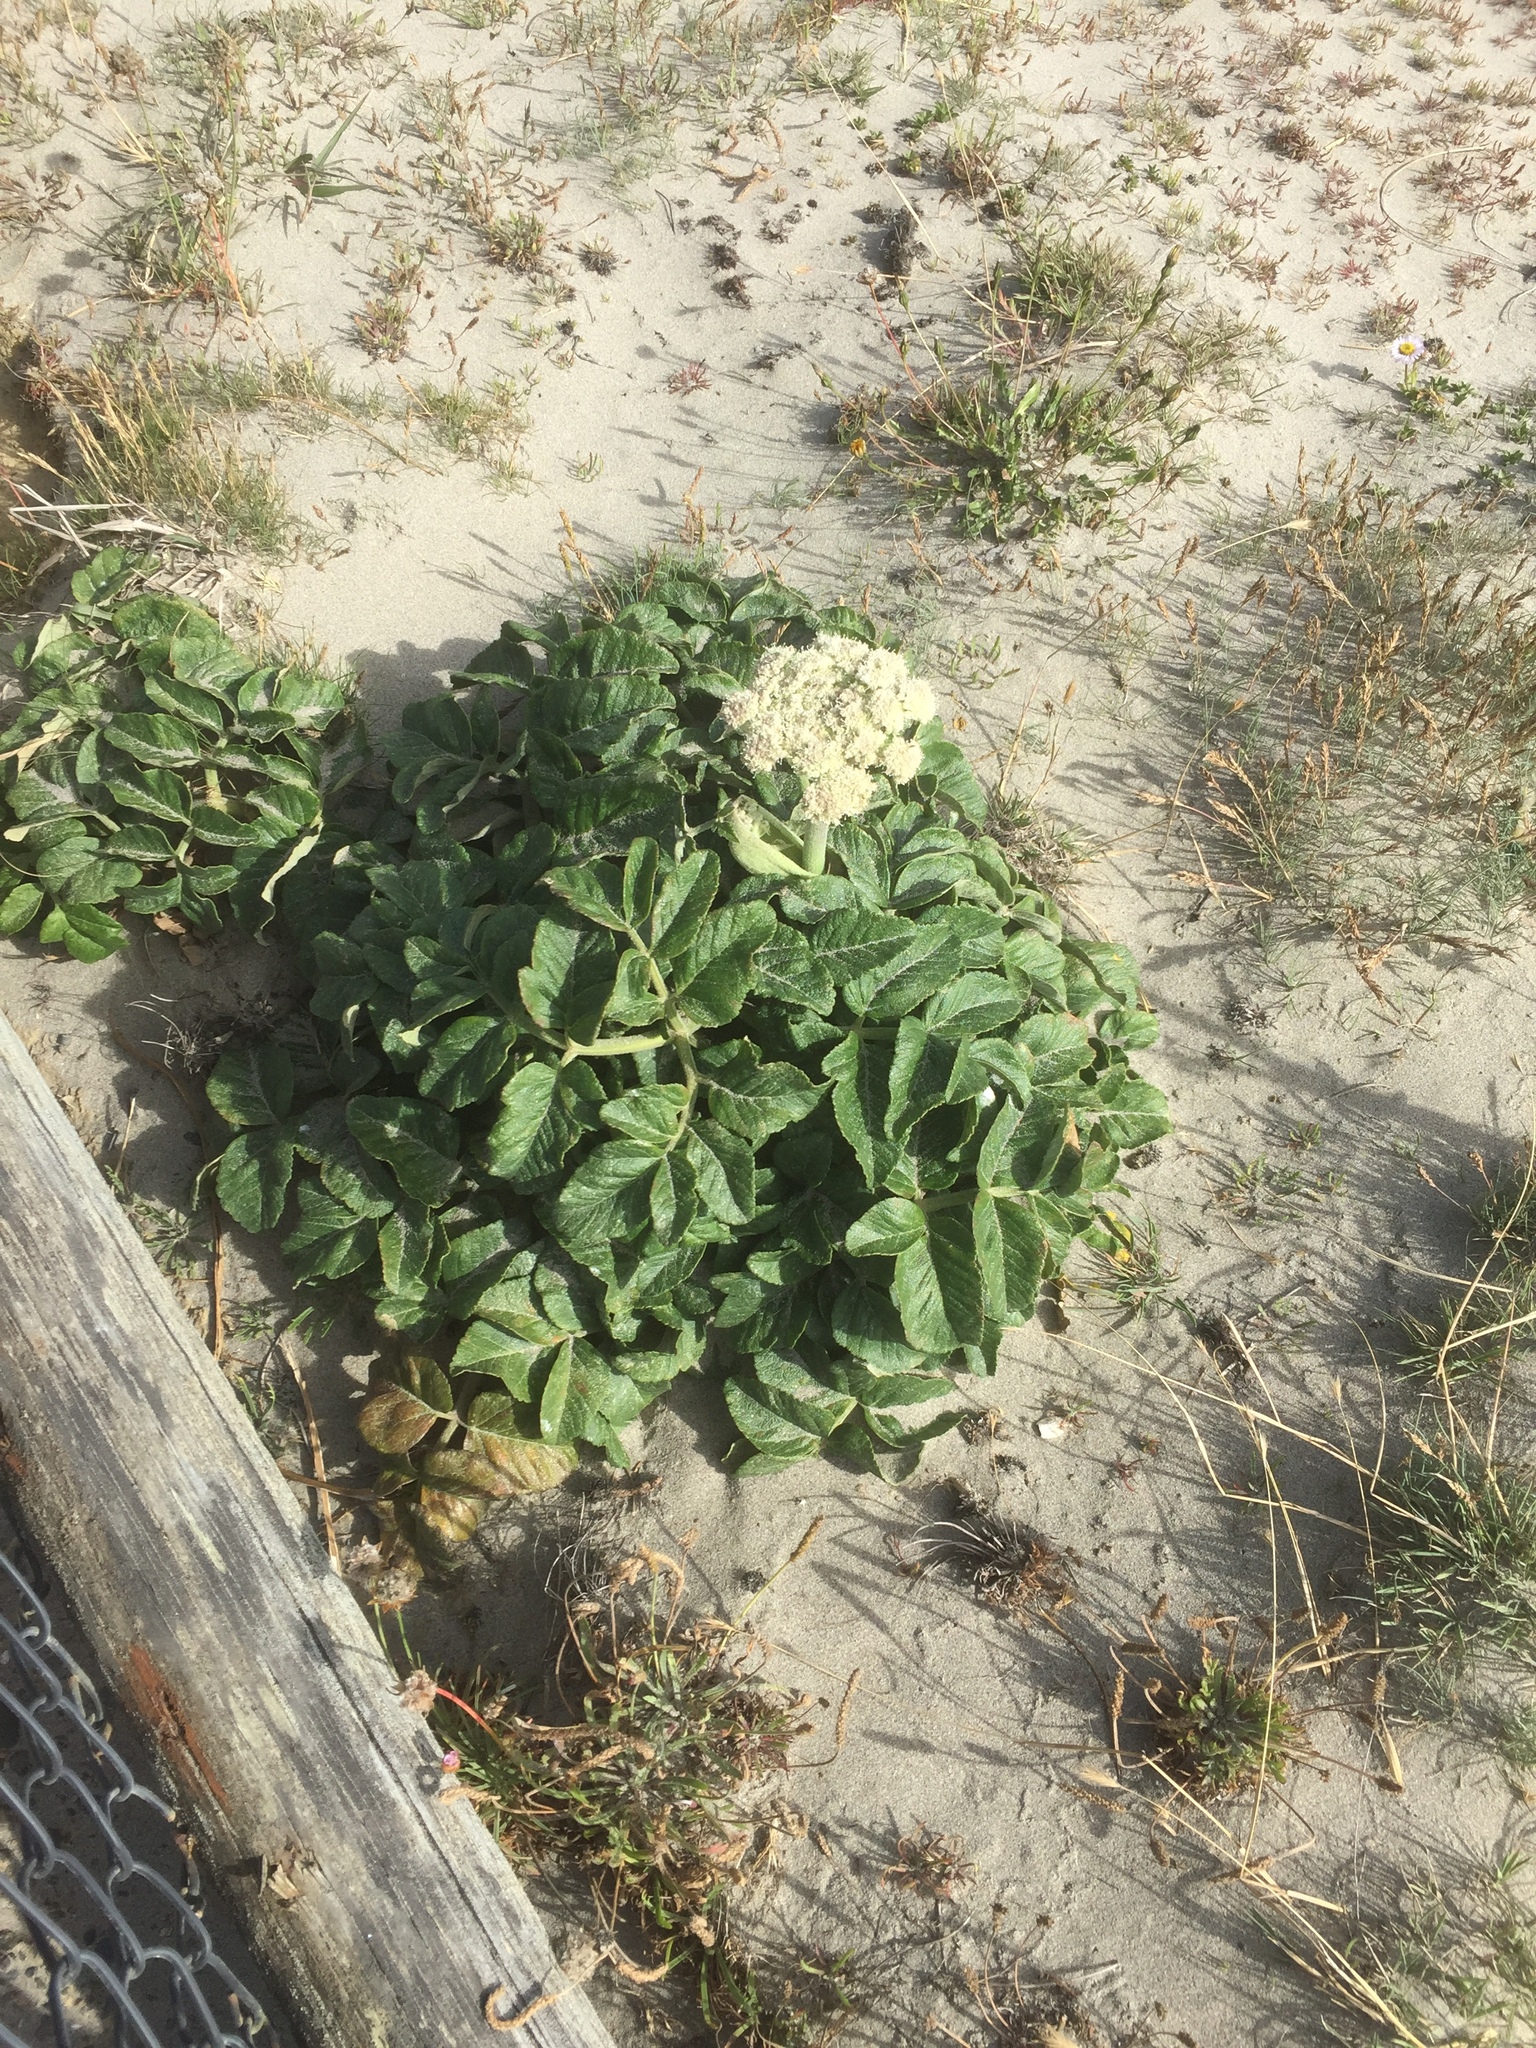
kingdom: Plantae
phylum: Tracheophyta
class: Magnoliopsida
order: Apiales
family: Apiaceae
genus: Angelica
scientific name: Angelica hendersonii
